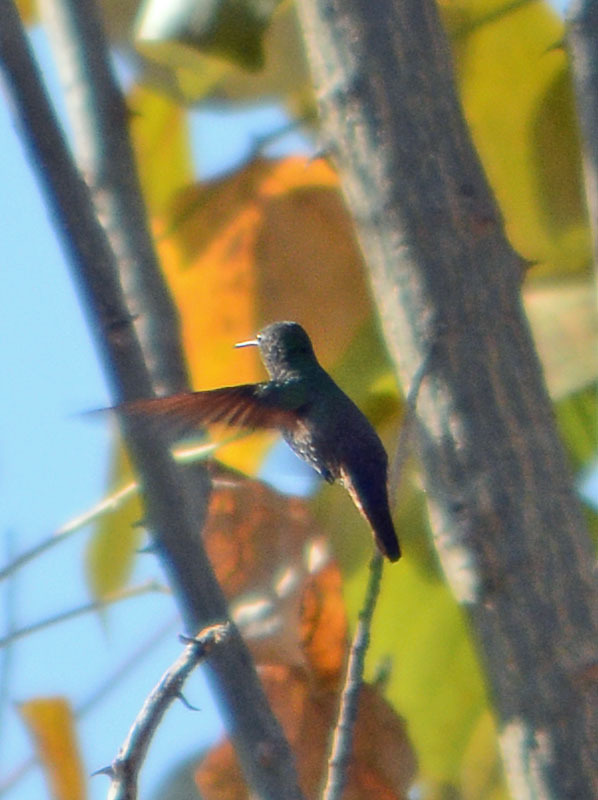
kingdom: Animalia
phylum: Chordata
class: Aves
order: Apodiformes
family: Trochilidae
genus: Saucerottia
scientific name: Saucerottia beryllina
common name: Berylline hummingbird
